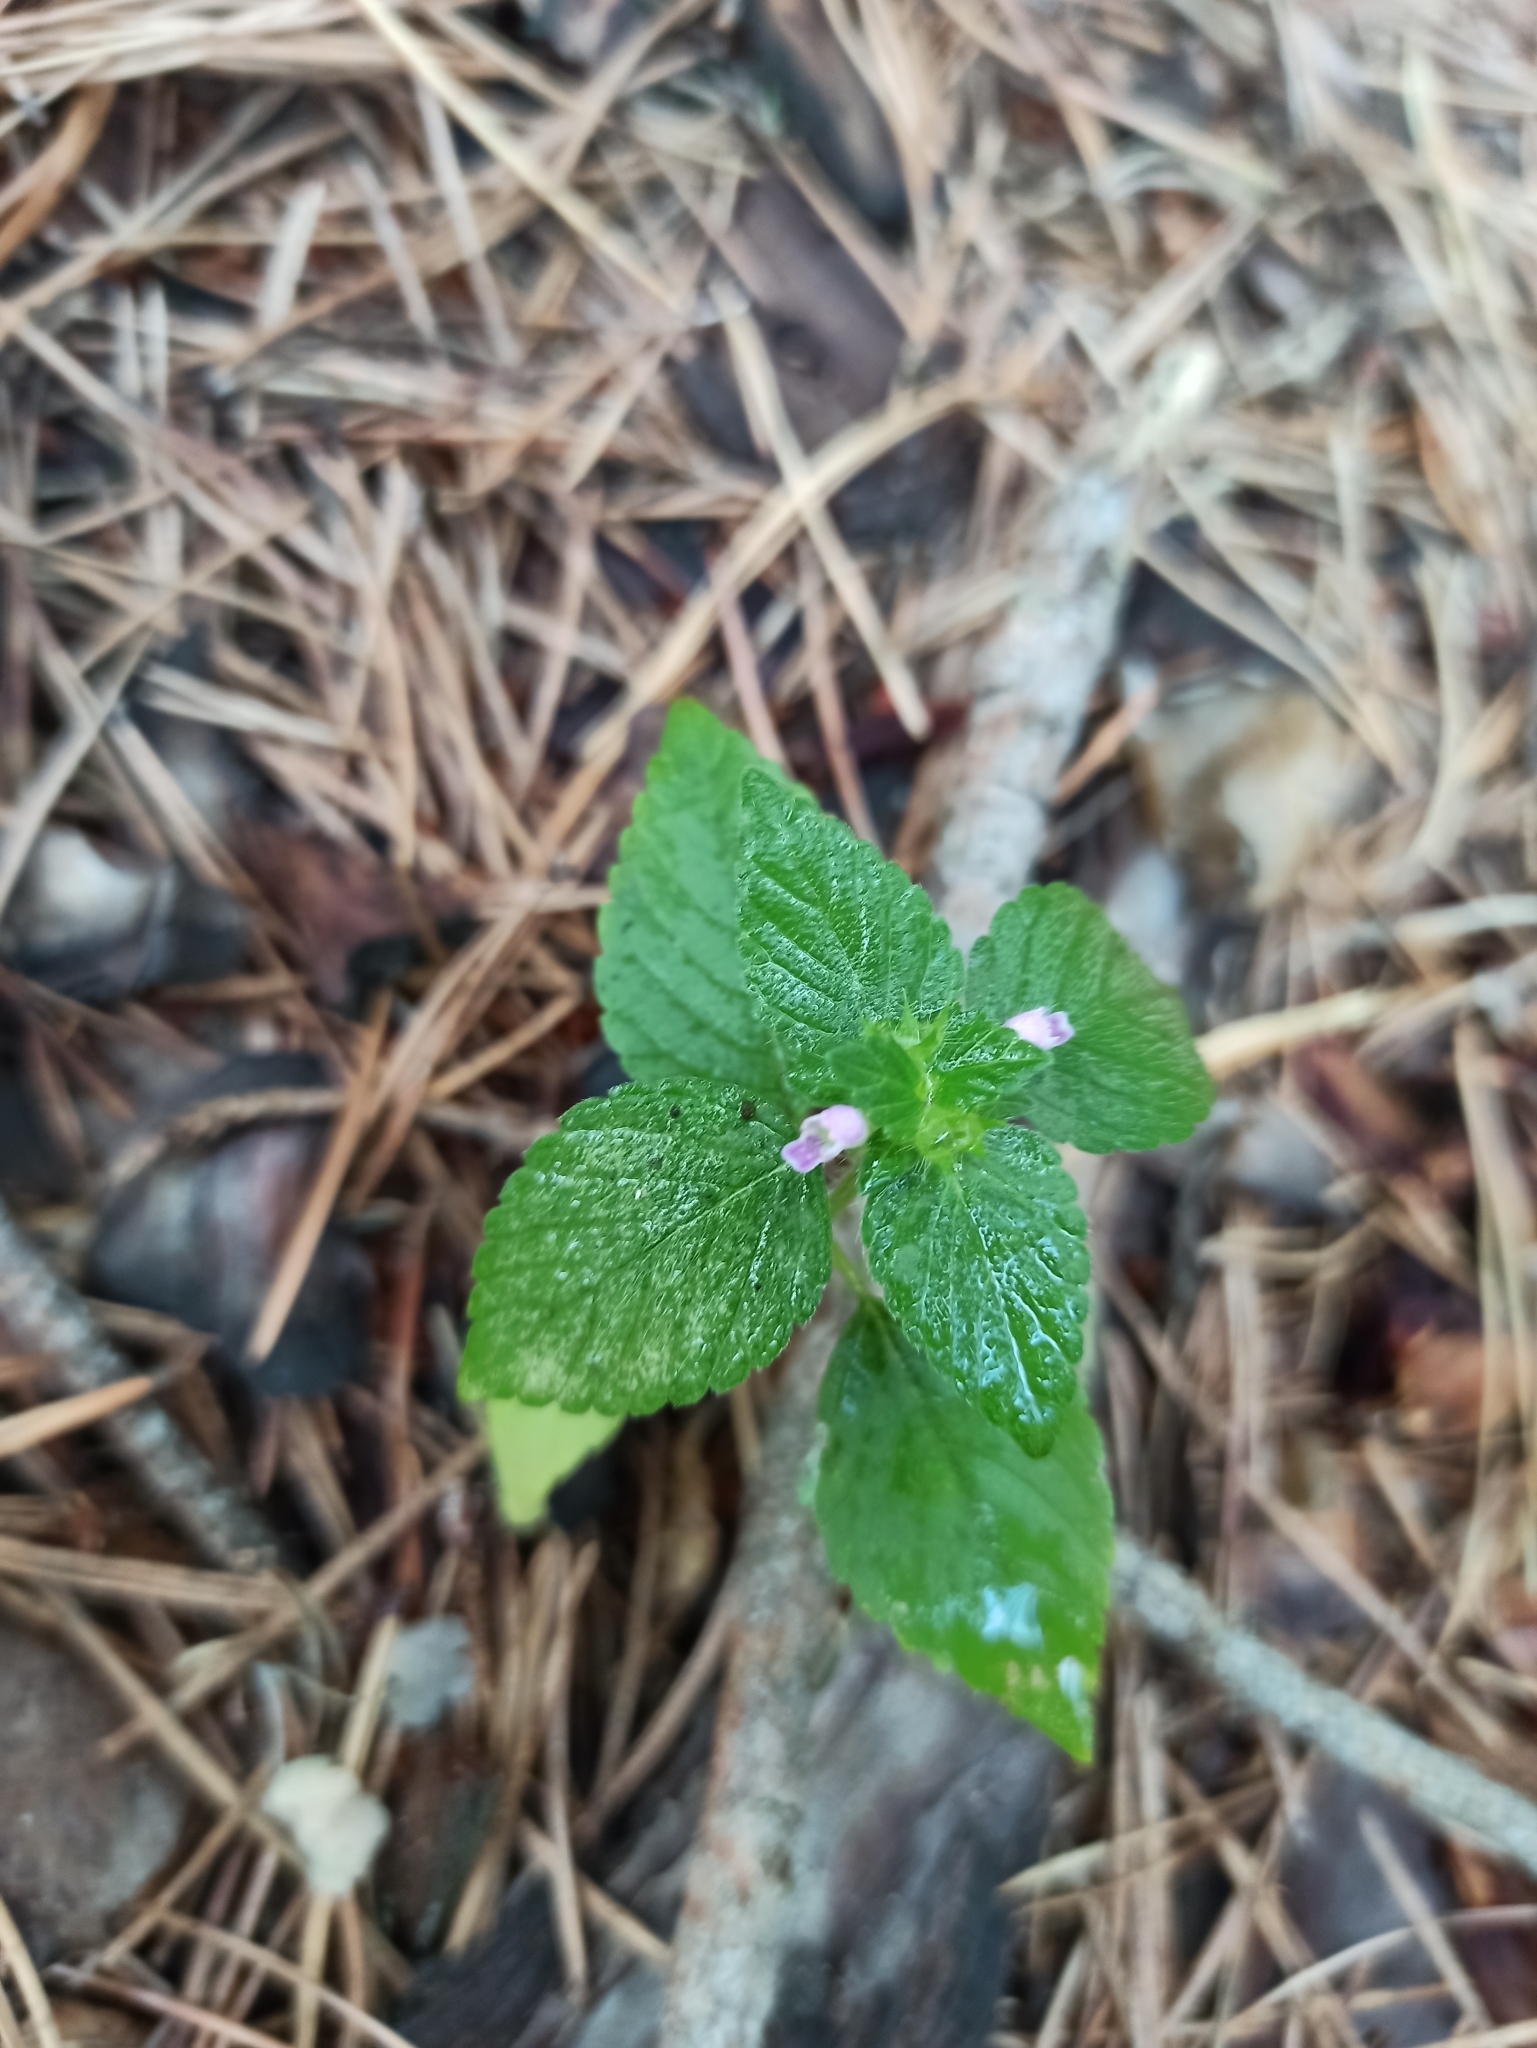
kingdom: Plantae
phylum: Tracheophyta
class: Magnoliopsida
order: Lamiales
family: Lamiaceae
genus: Galeopsis
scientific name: Galeopsis bifida
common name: Bifid hemp-nettle
